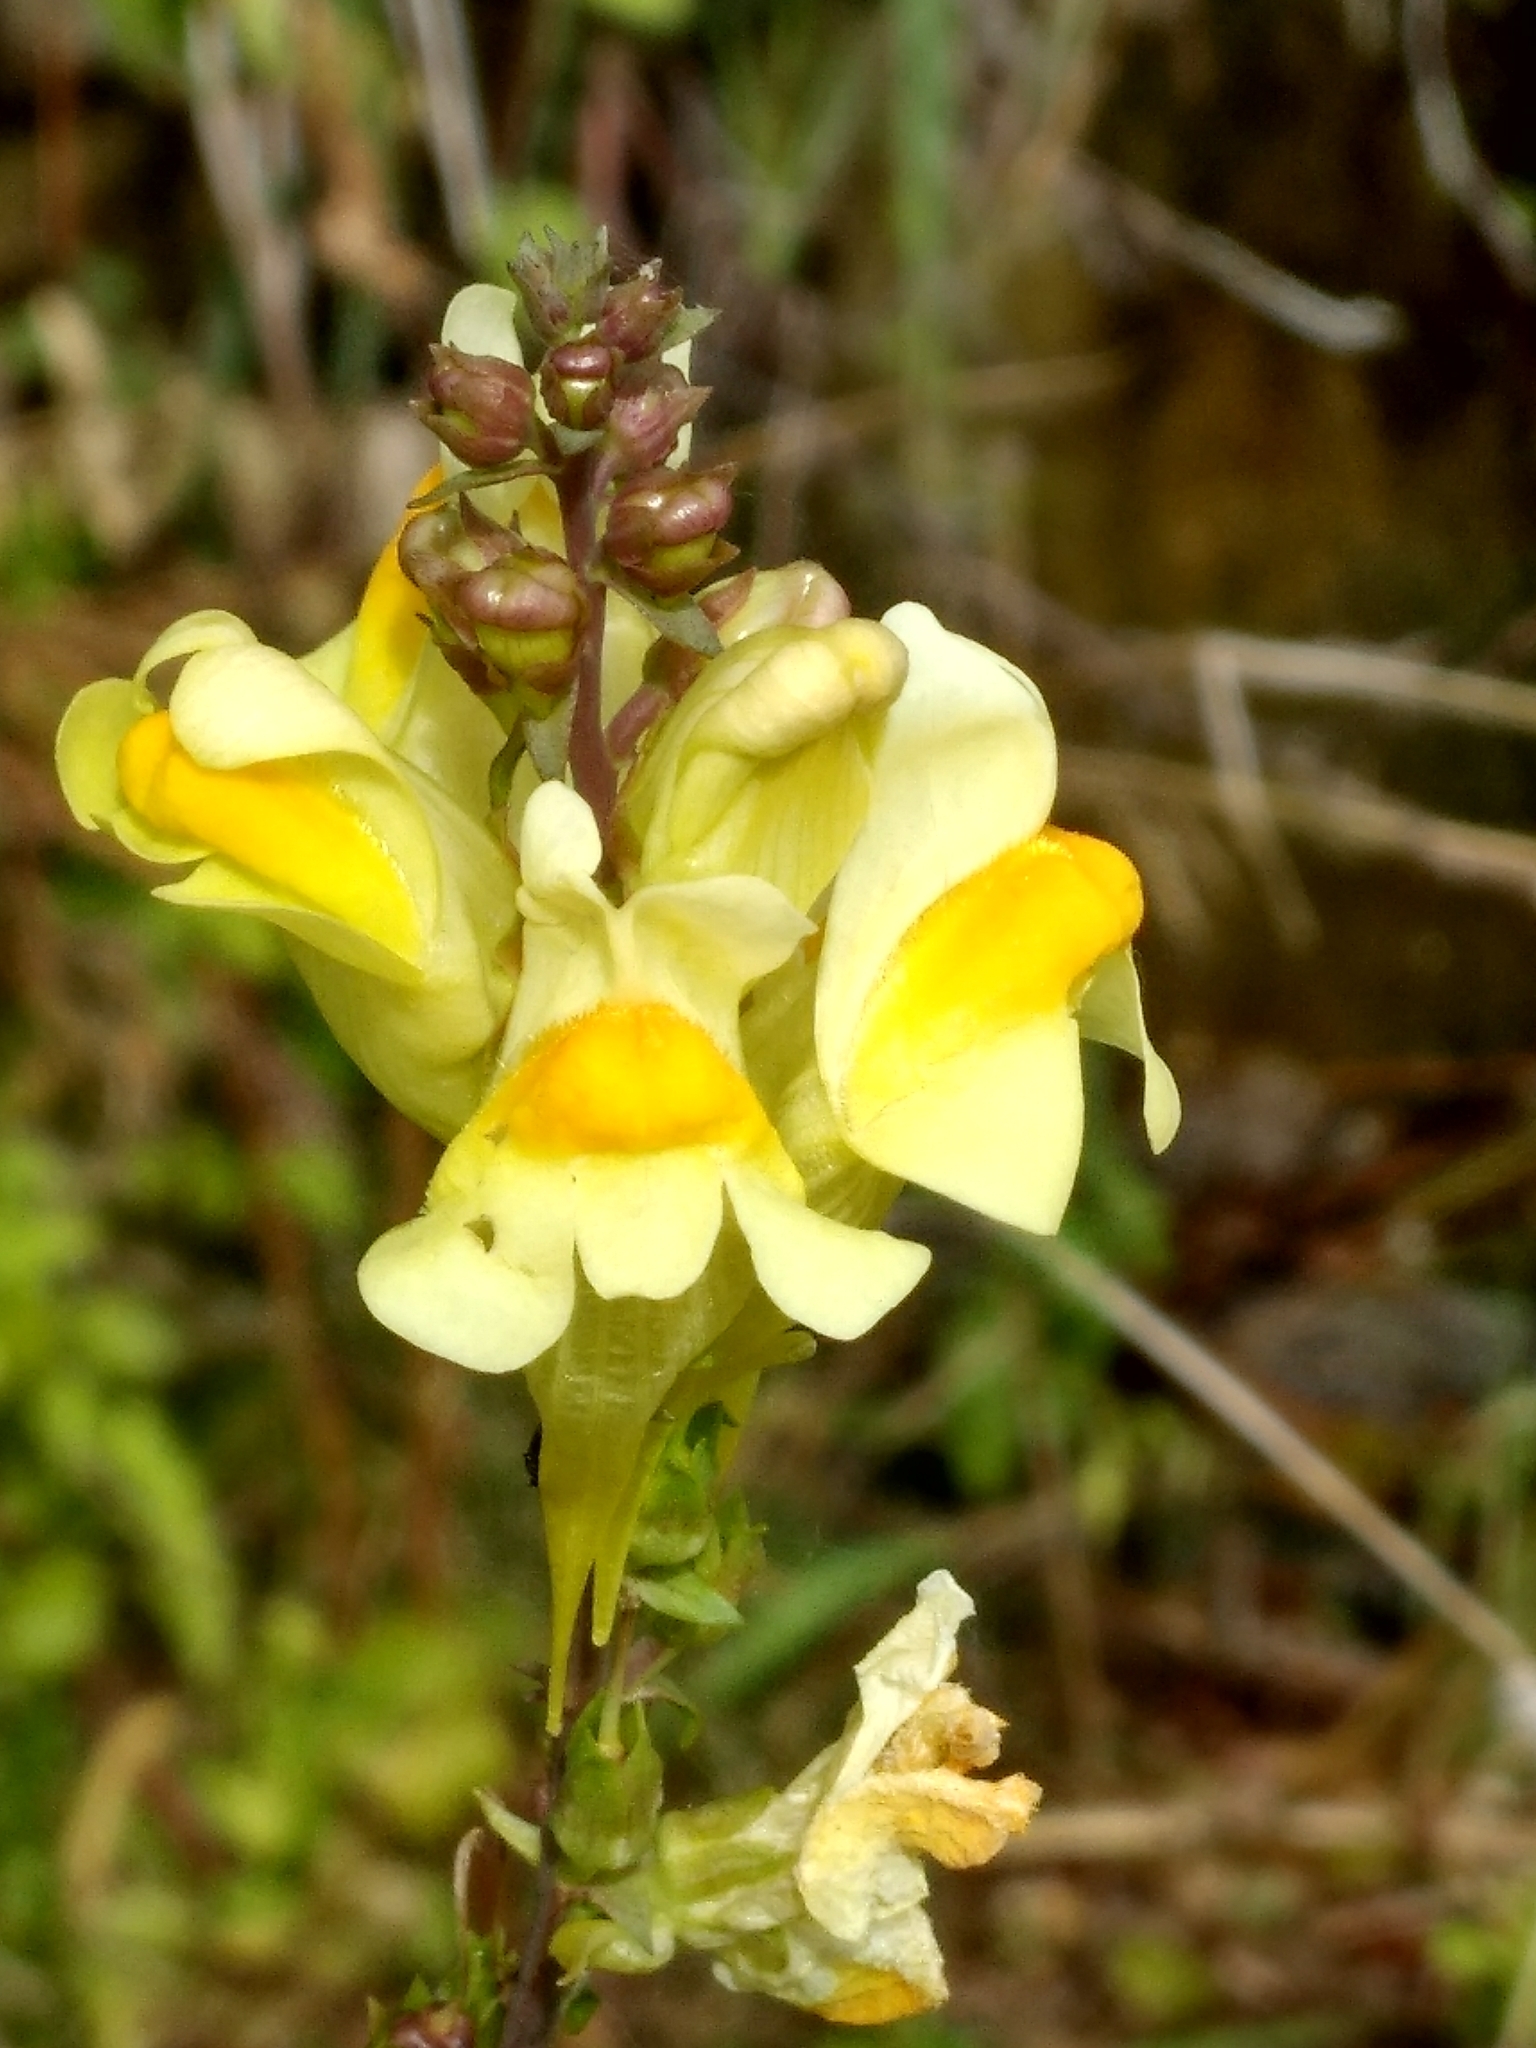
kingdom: Plantae
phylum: Tracheophyta
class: Magnoliopsida
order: Lamiales
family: Plantaginaceae
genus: Linaria
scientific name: Linaria vulgaris
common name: Butter and eggs
